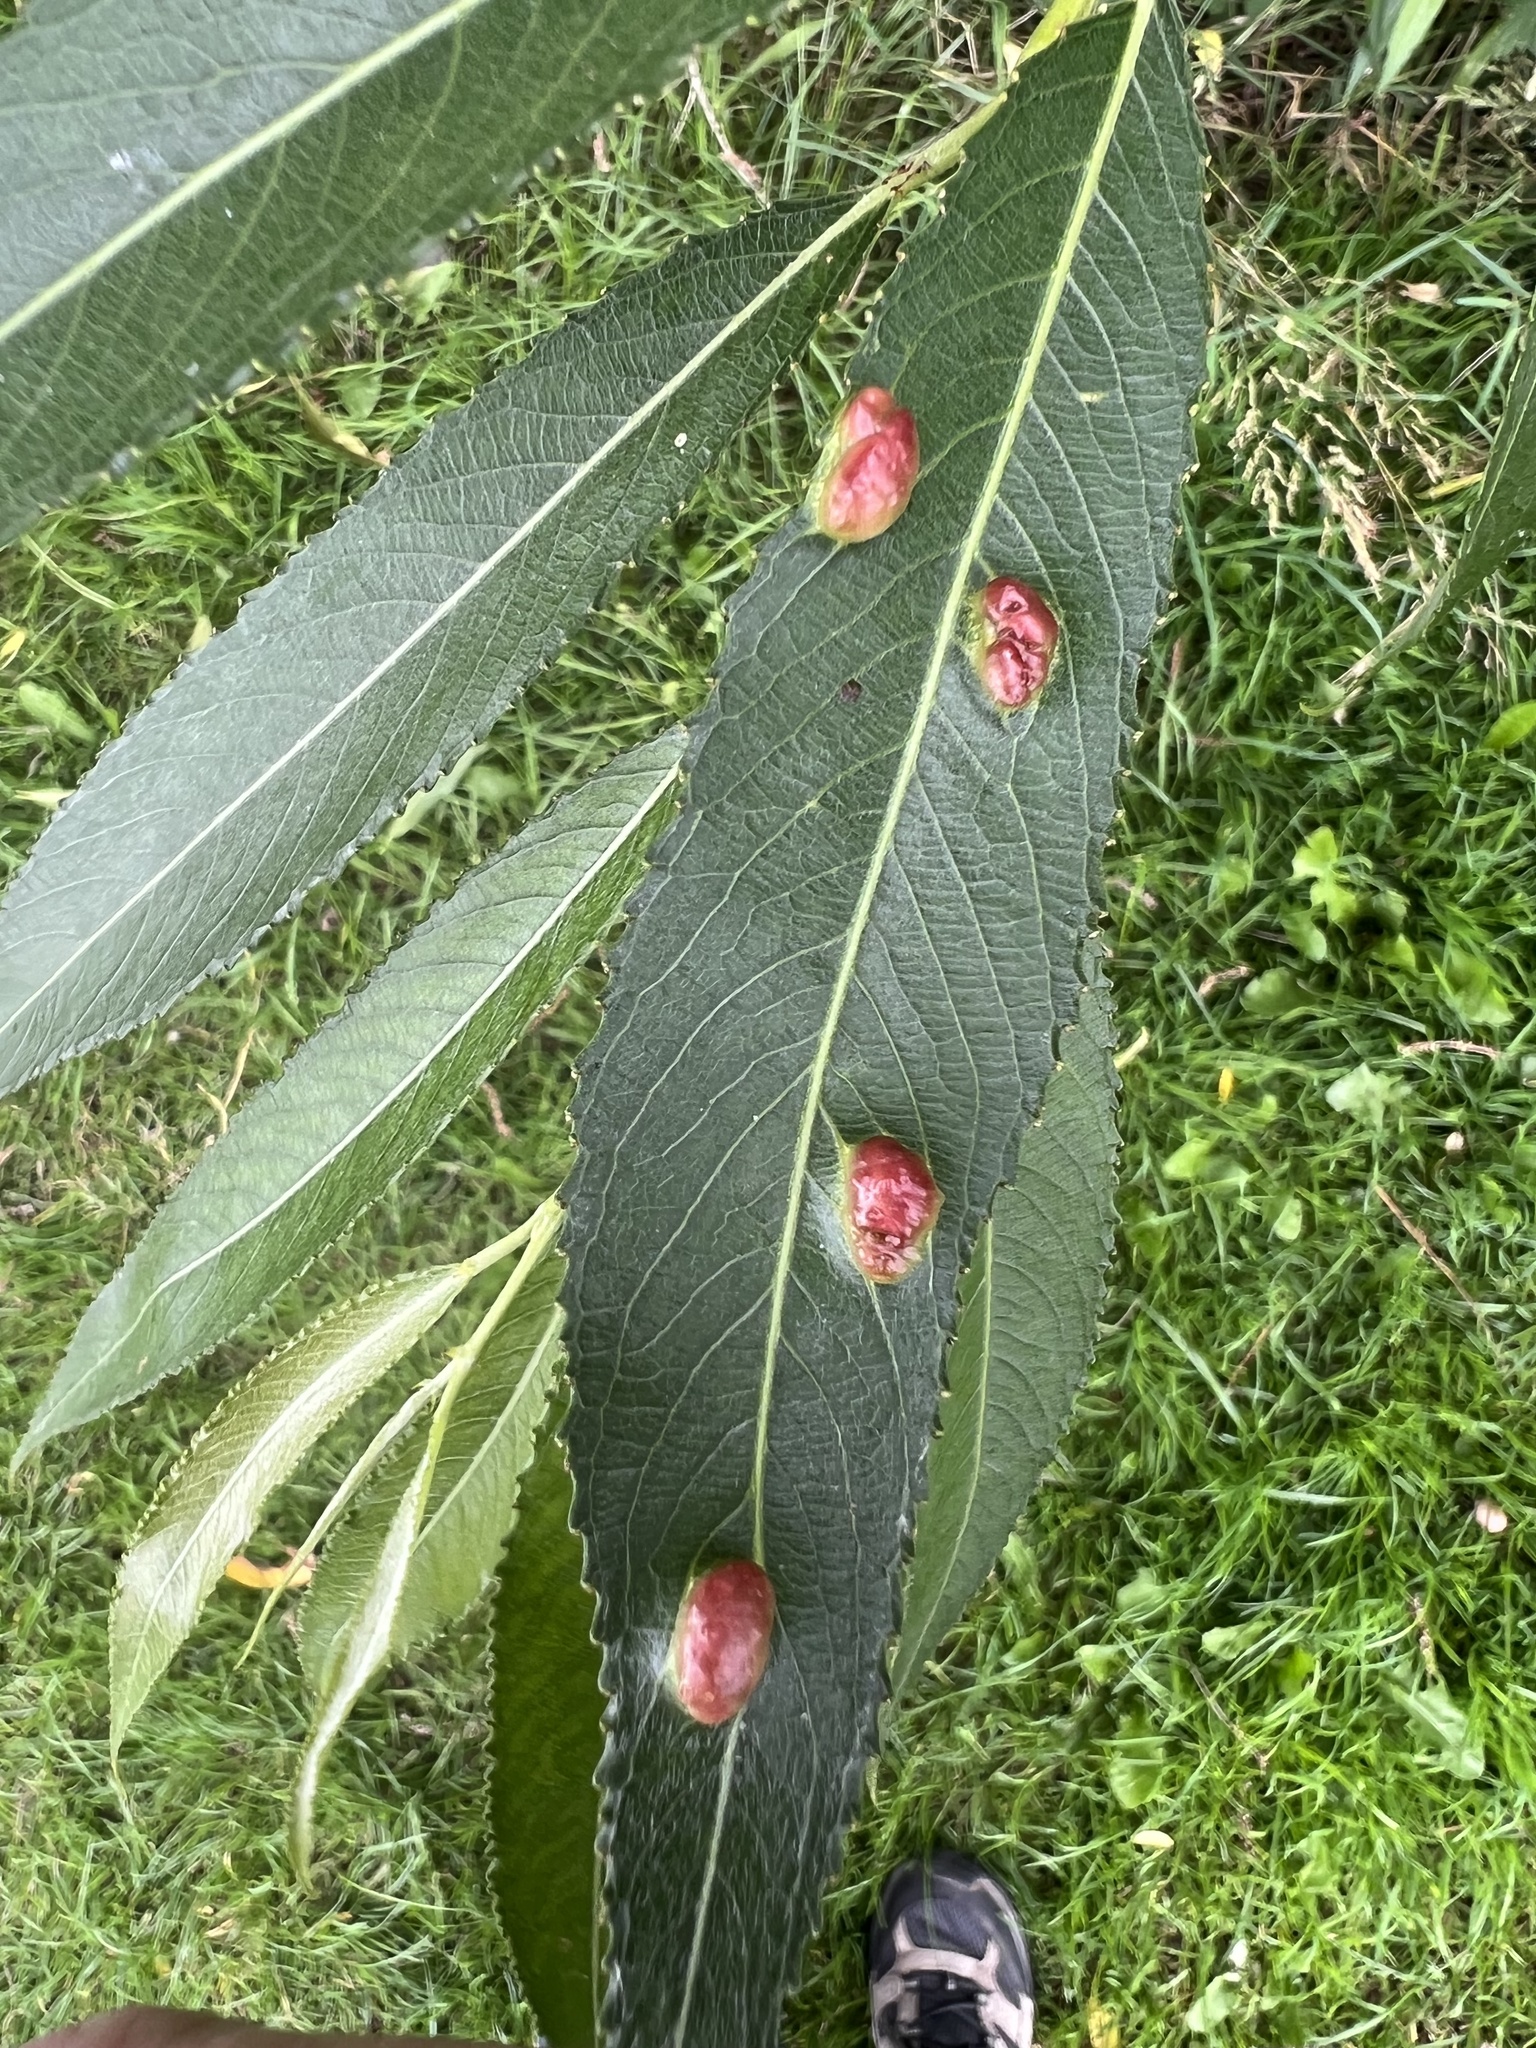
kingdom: Animalia
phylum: Arthropoda
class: Insecta
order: Hymenoptera
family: Tenthredinidae
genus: Pontania
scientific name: Pontania proxima
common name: Common sawfly
